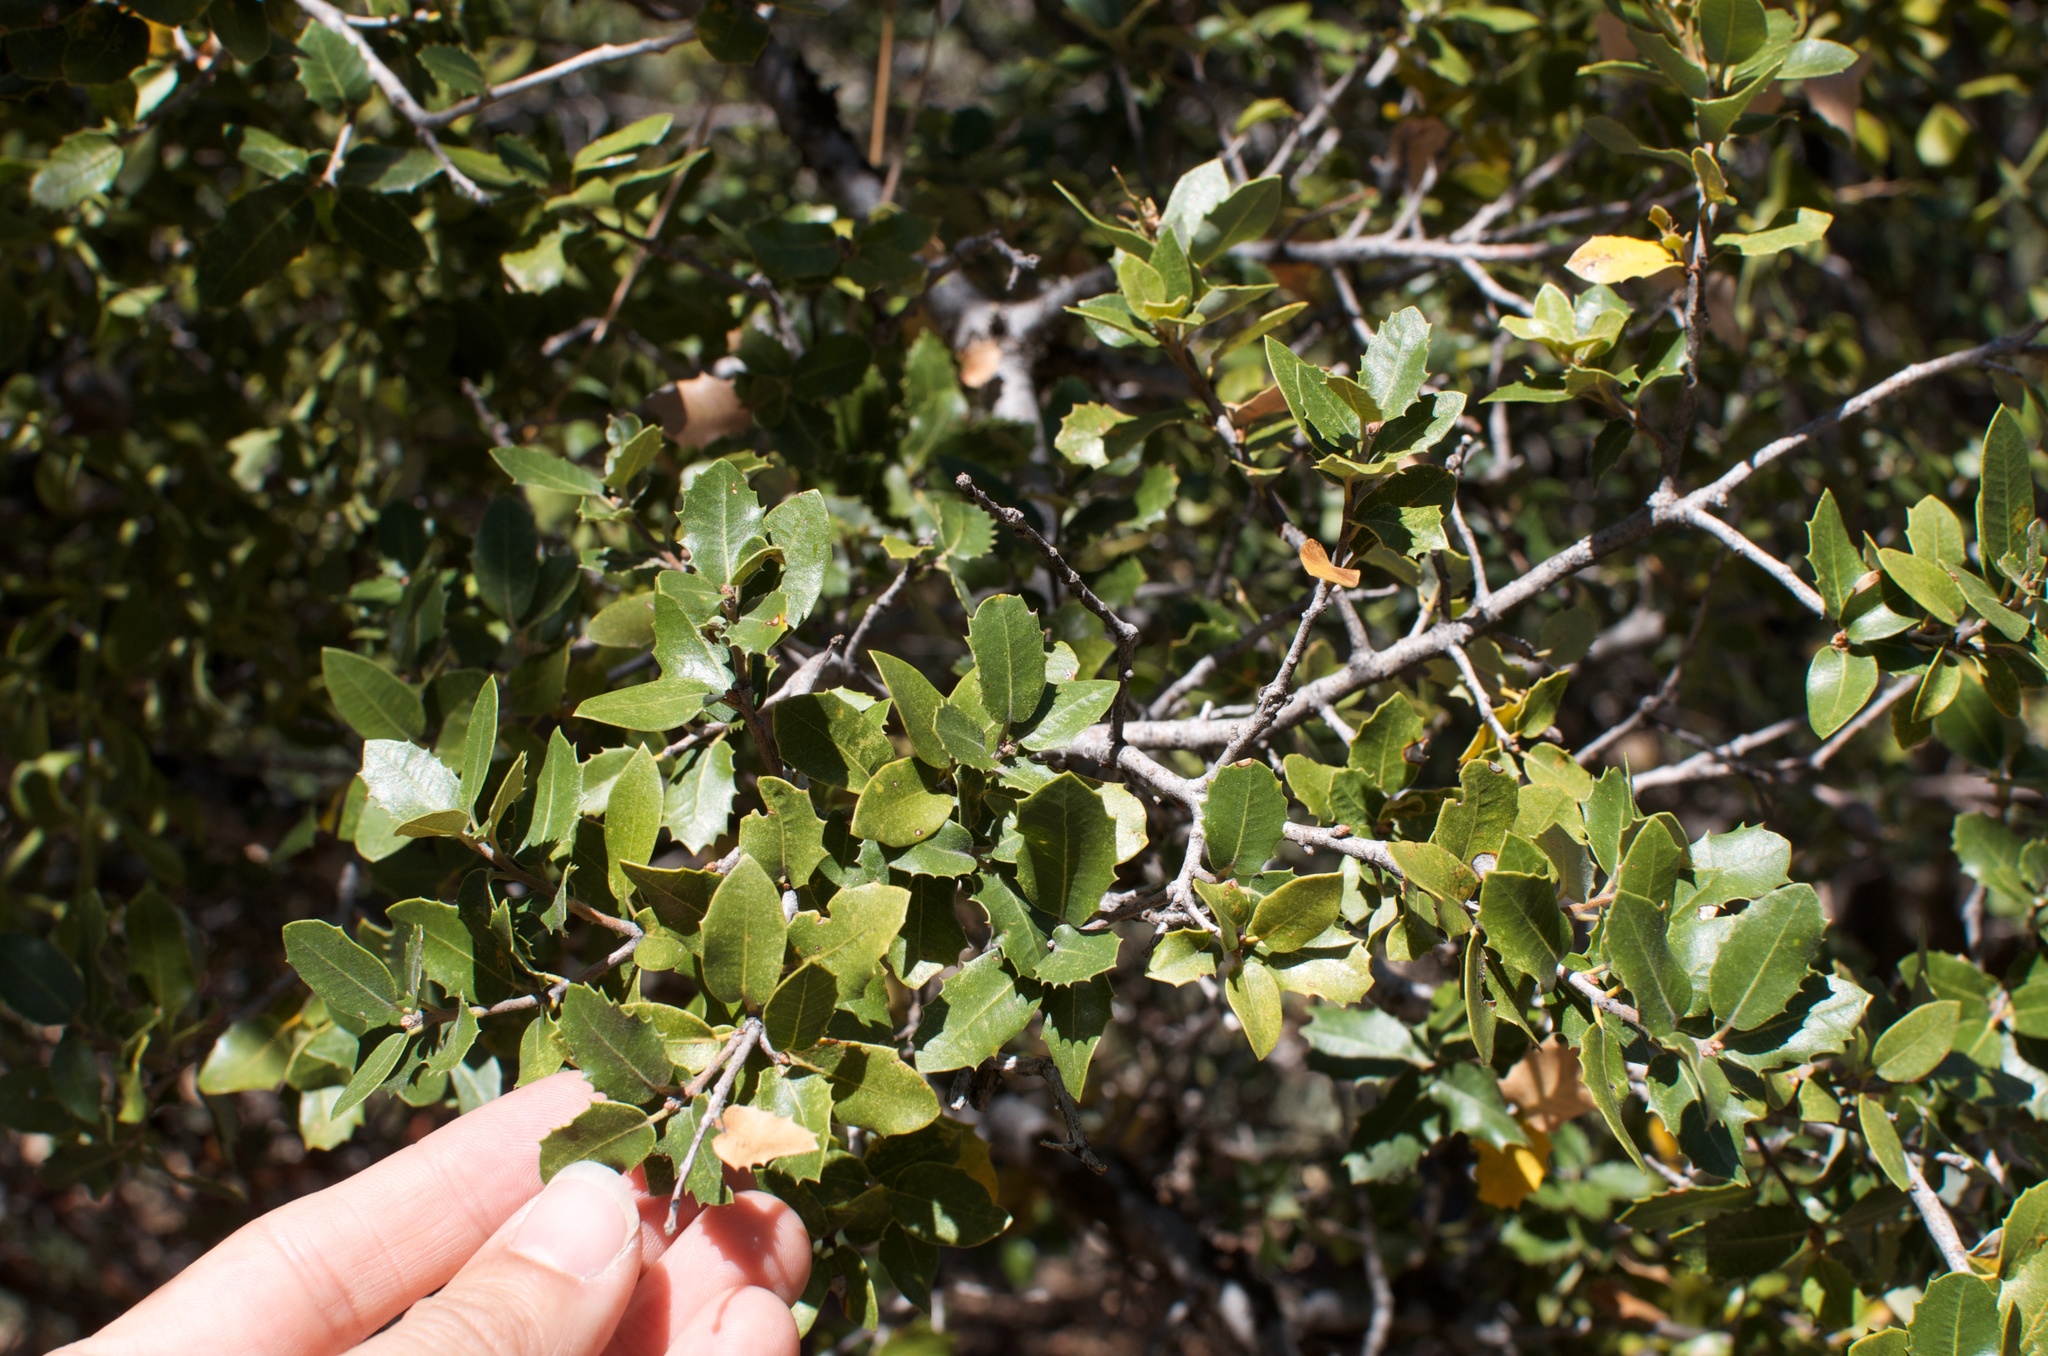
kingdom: Plantae
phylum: Tracheophyta
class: Magnoliopsida
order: Fagales
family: Fagaceae
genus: Quercus
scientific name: Quercus chrysolepis
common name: Canyon live oak
